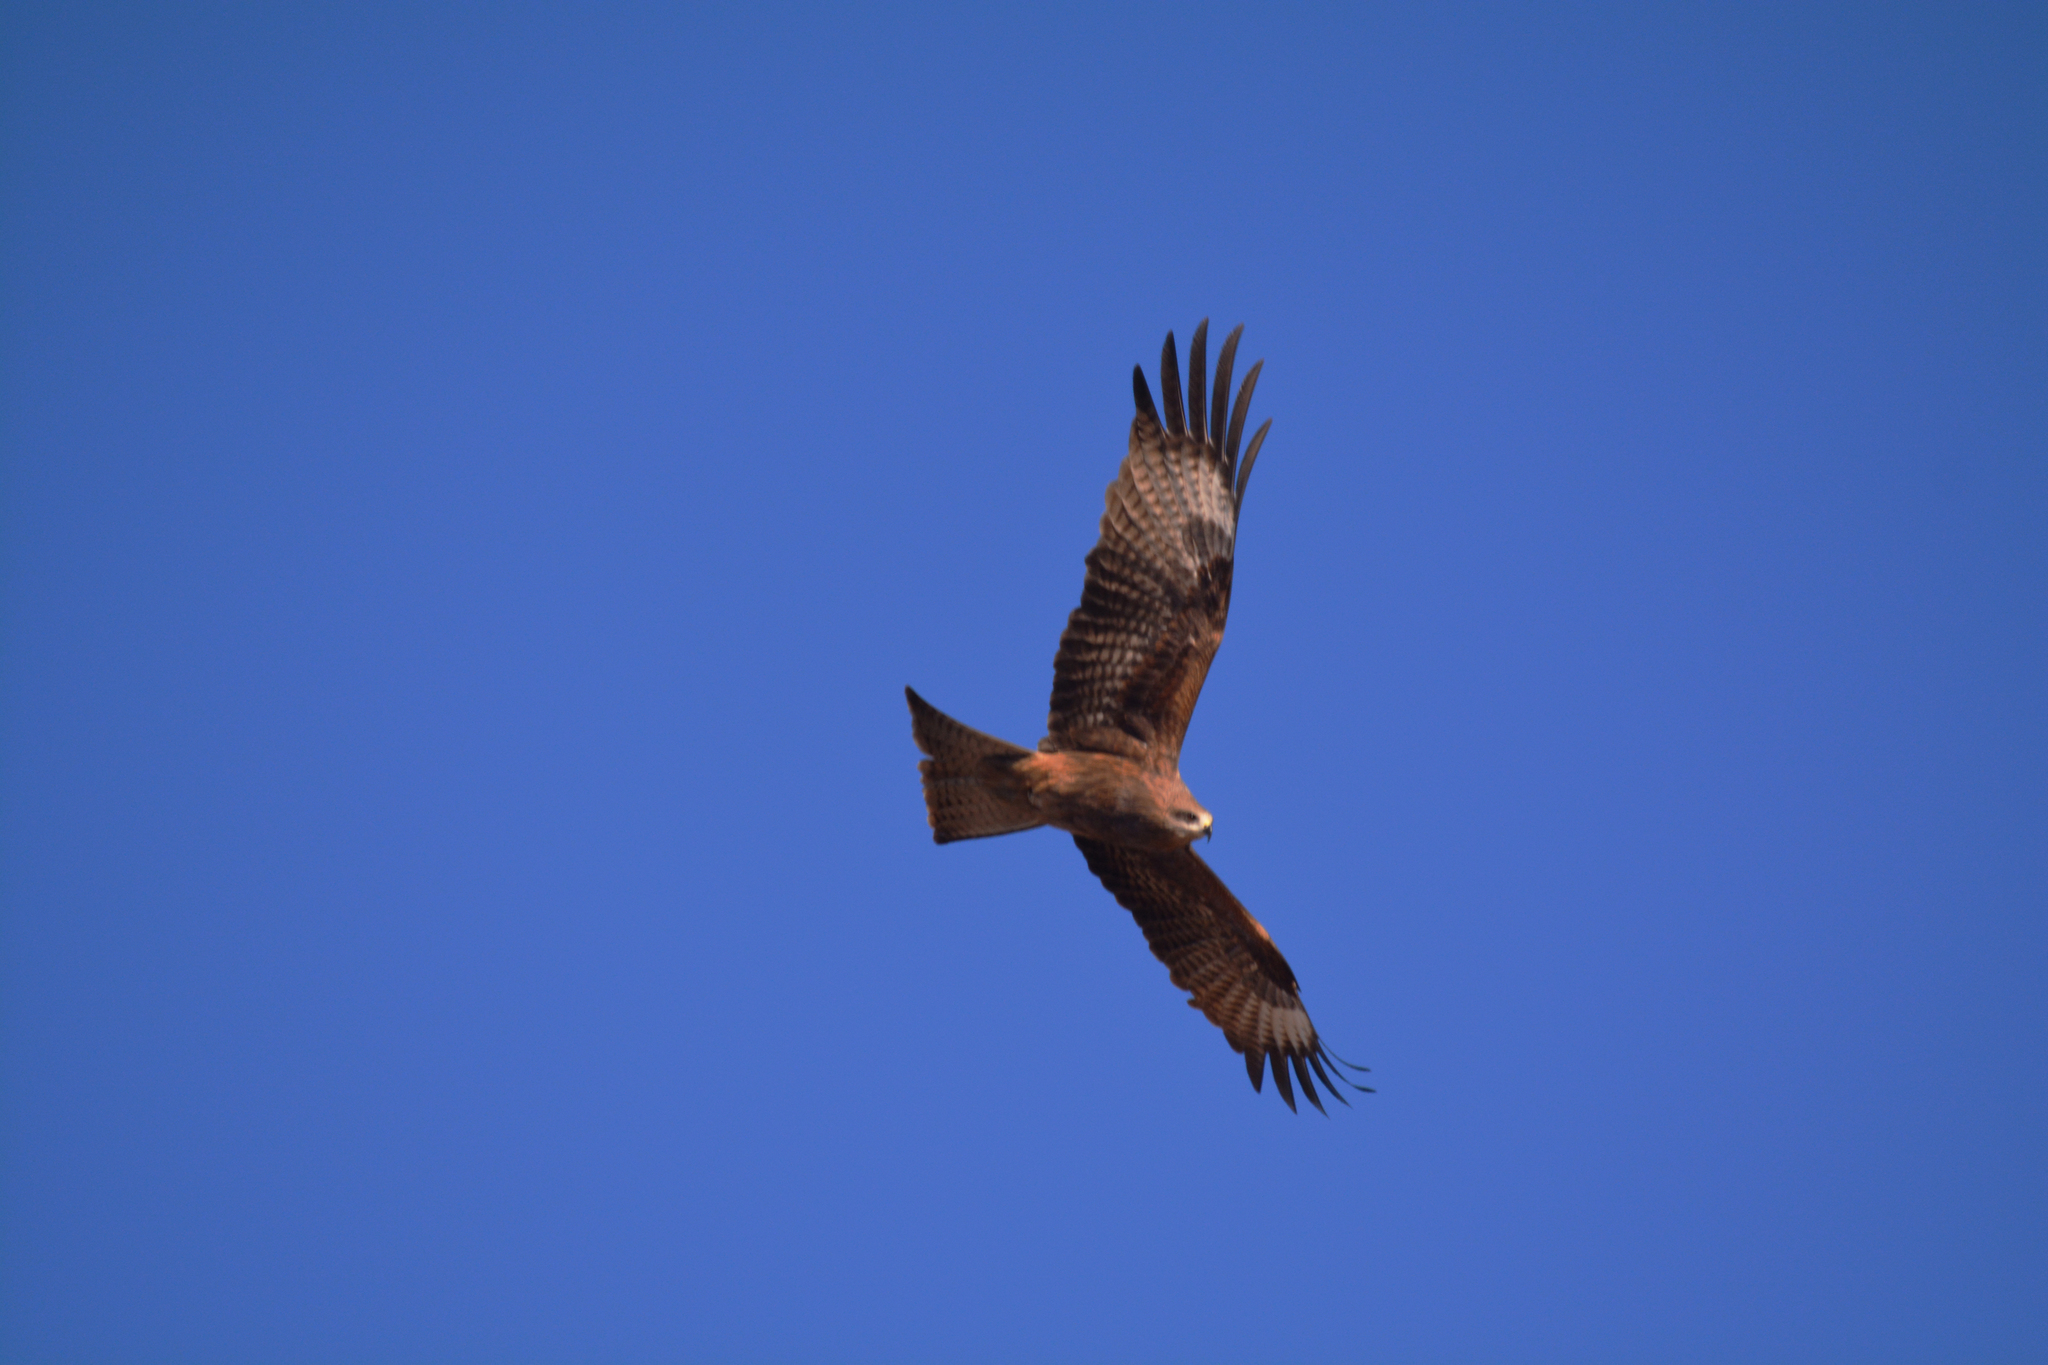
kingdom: Animalia
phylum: Chordata
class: Aves
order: Accipitriformes
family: Accipitridae
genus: Milvus
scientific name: Milvus migrans
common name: Black kite
